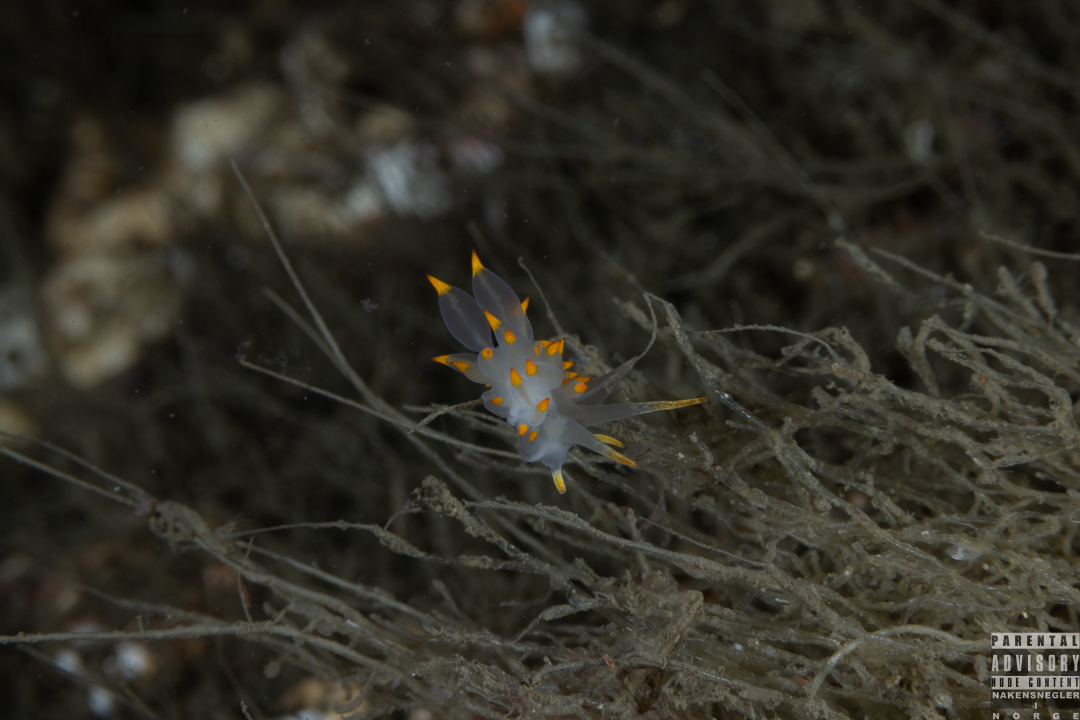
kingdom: Animalia
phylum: Mollusca
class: Gastropoda
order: Nudibranchia
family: Eubranchidae
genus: Amphorina
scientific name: Amphorina farrani
